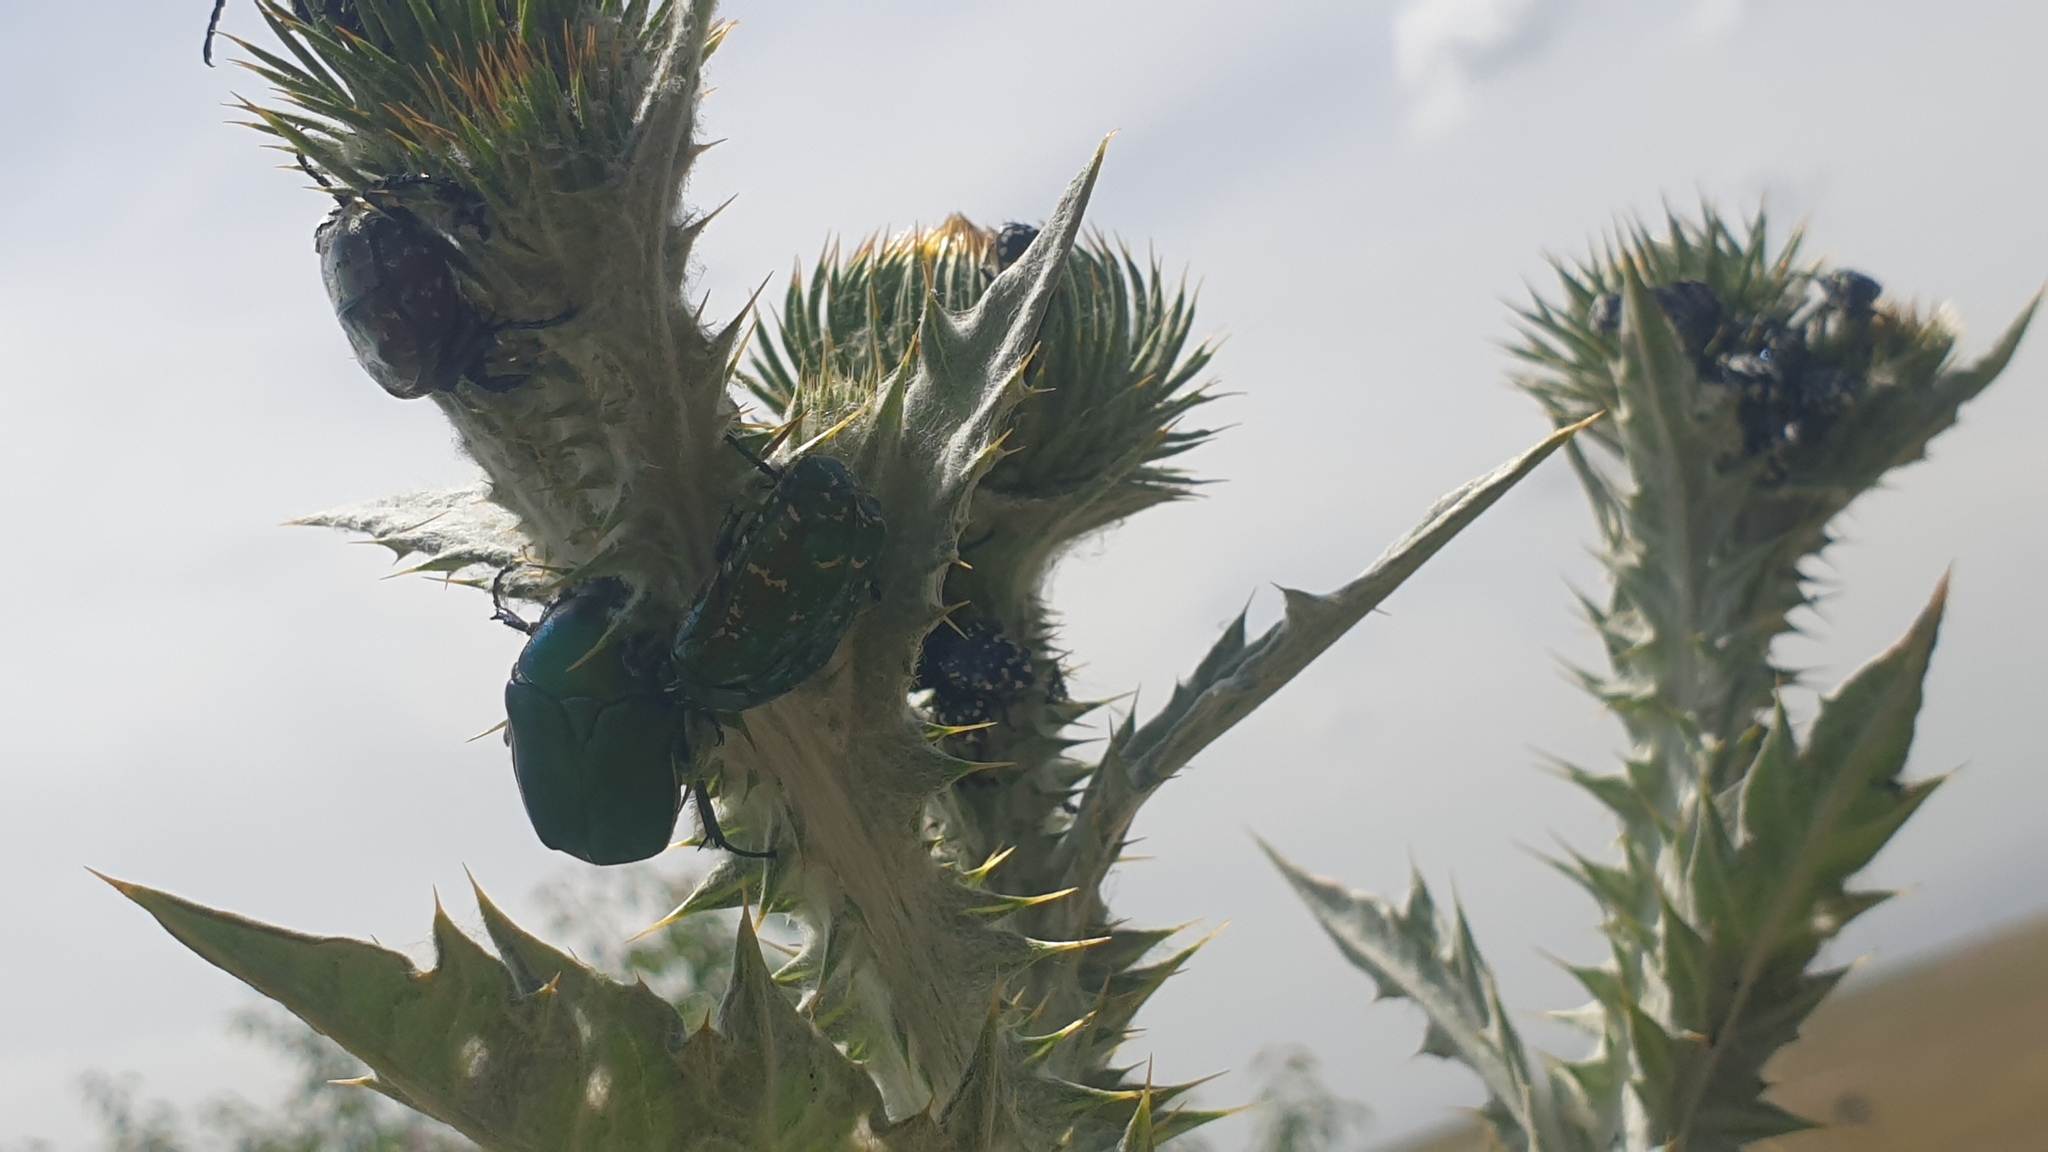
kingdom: Animalia
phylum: Arthropoda
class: Insecta
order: Coleoptera
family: Scarabaeidae
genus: Protaetia
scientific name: Protaetia ungarica
